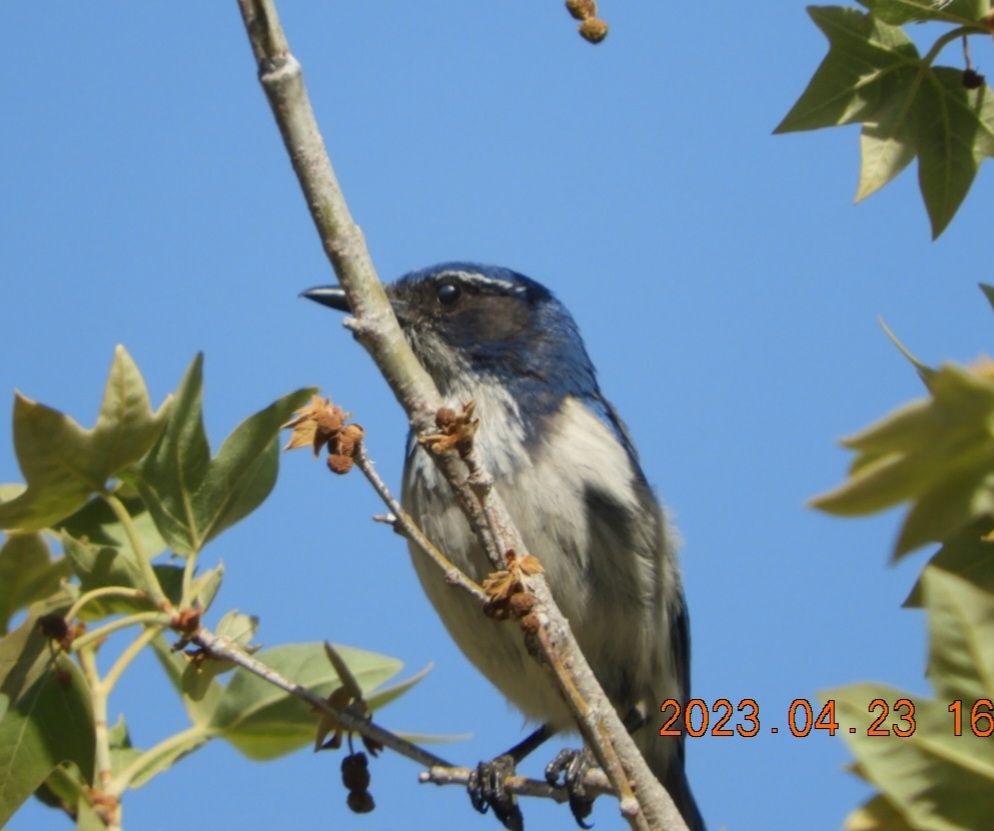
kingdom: Animalia
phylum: Chordata
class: Aves
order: Passeriformes
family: Corvidae
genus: Aphelocoma
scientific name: Aphelocoma californica
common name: California scrub-jay
